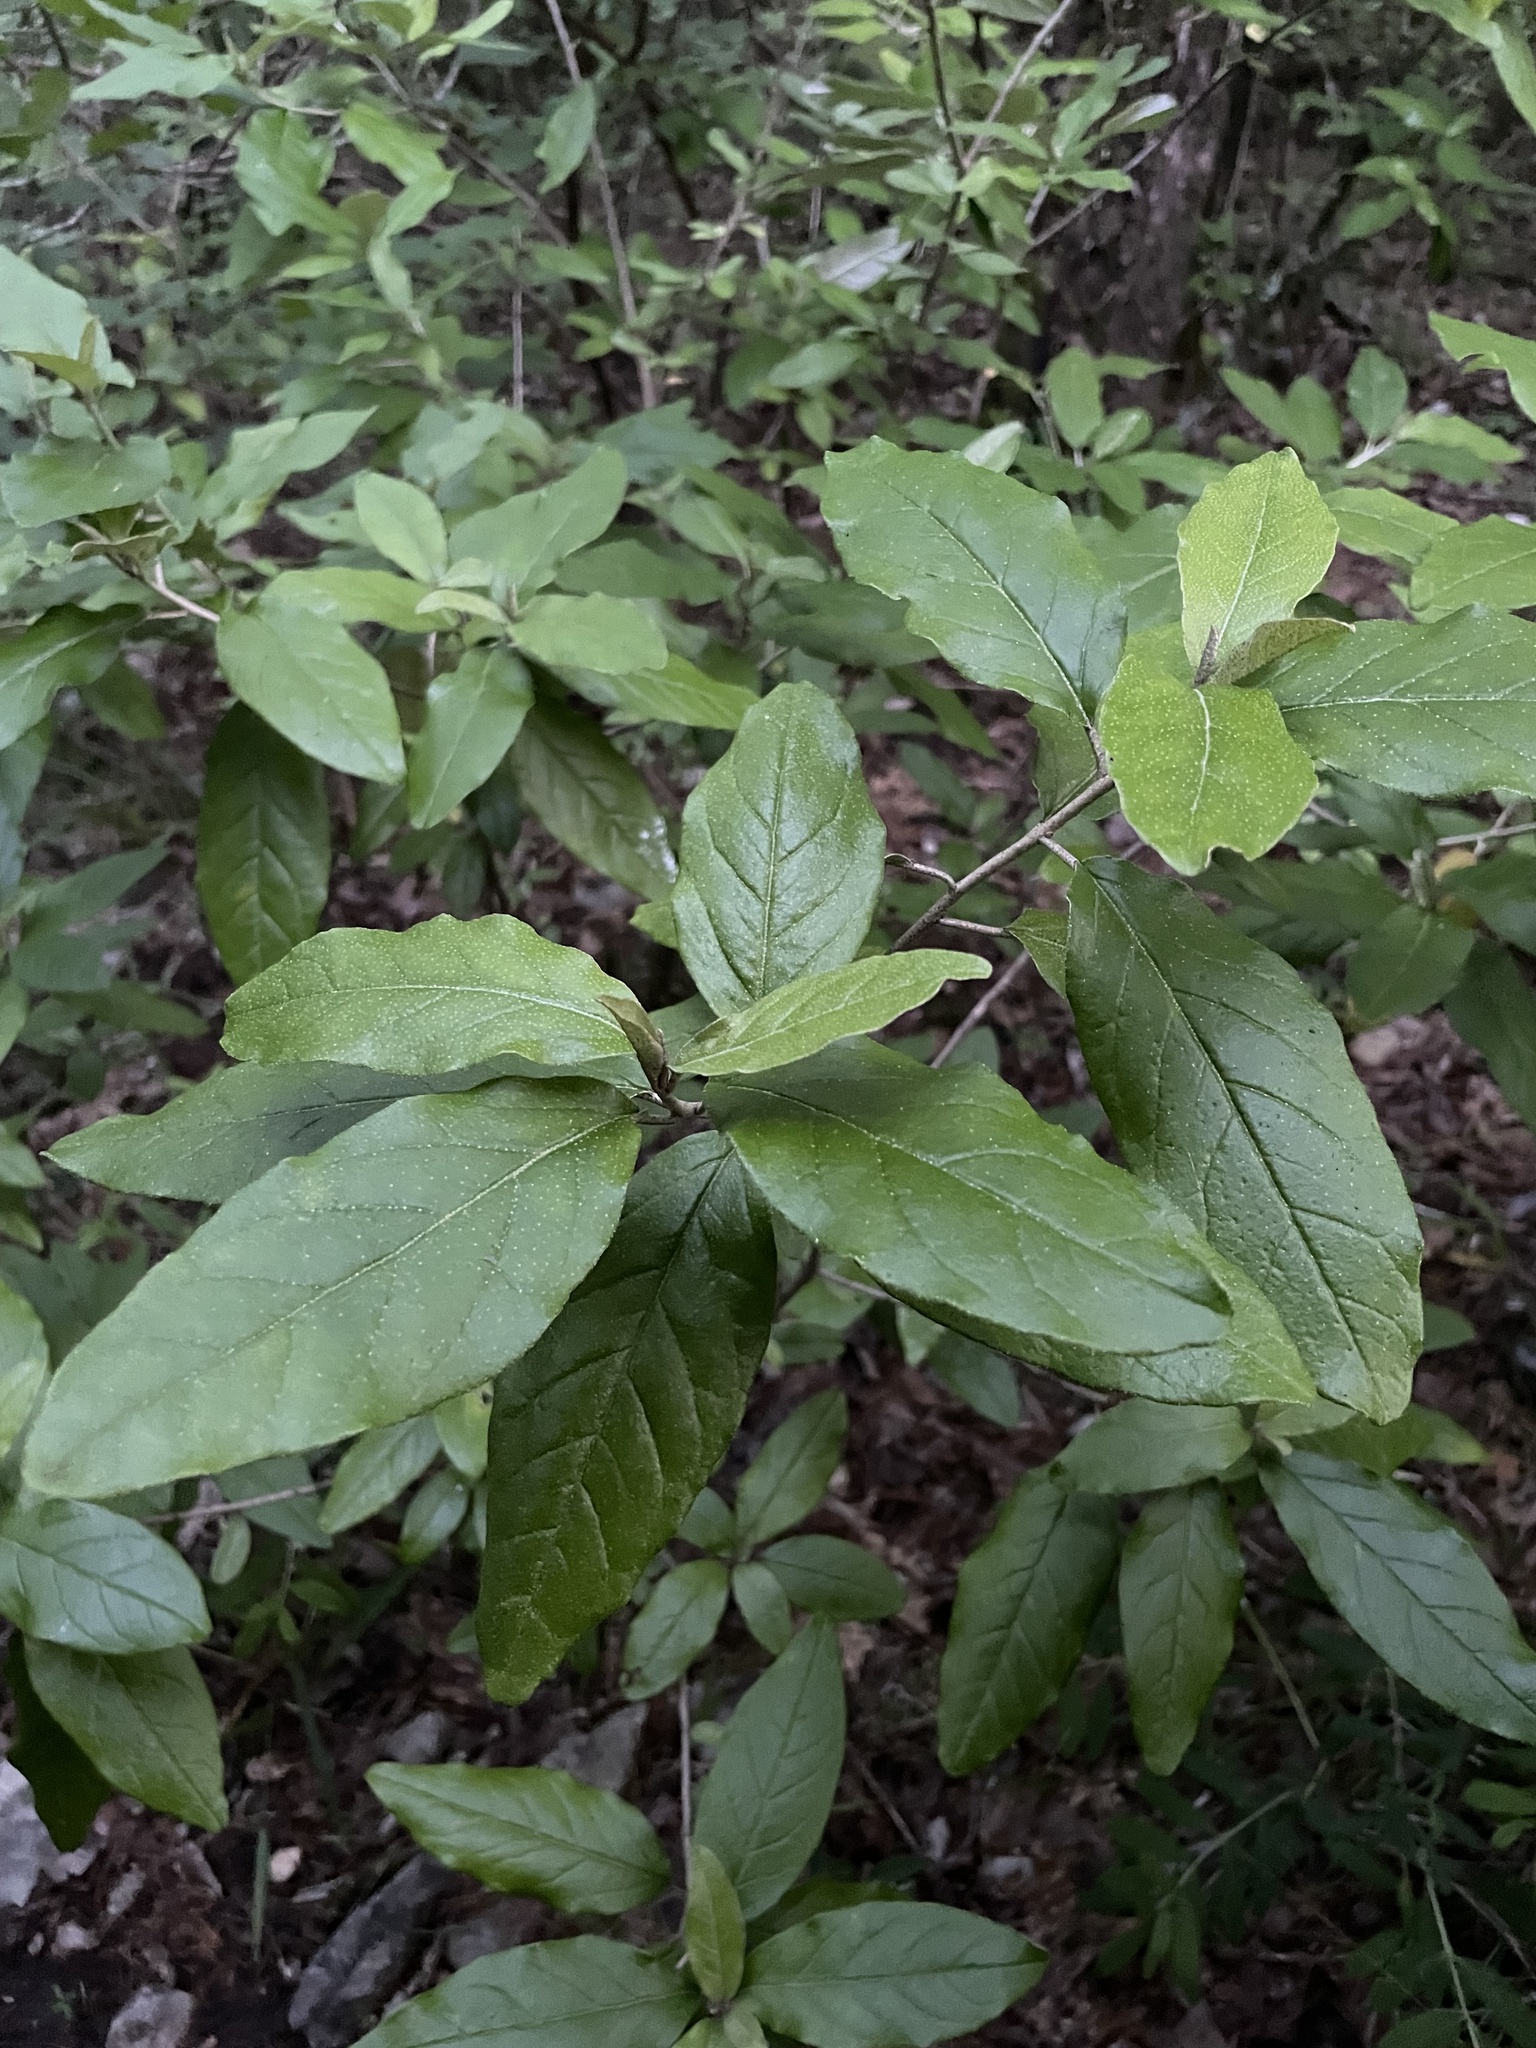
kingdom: Plantae
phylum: Tracheophyta
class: Magnoliopsida
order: Malpighiales
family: Euphorbiaceae
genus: Croton
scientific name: Croton alabamensis
